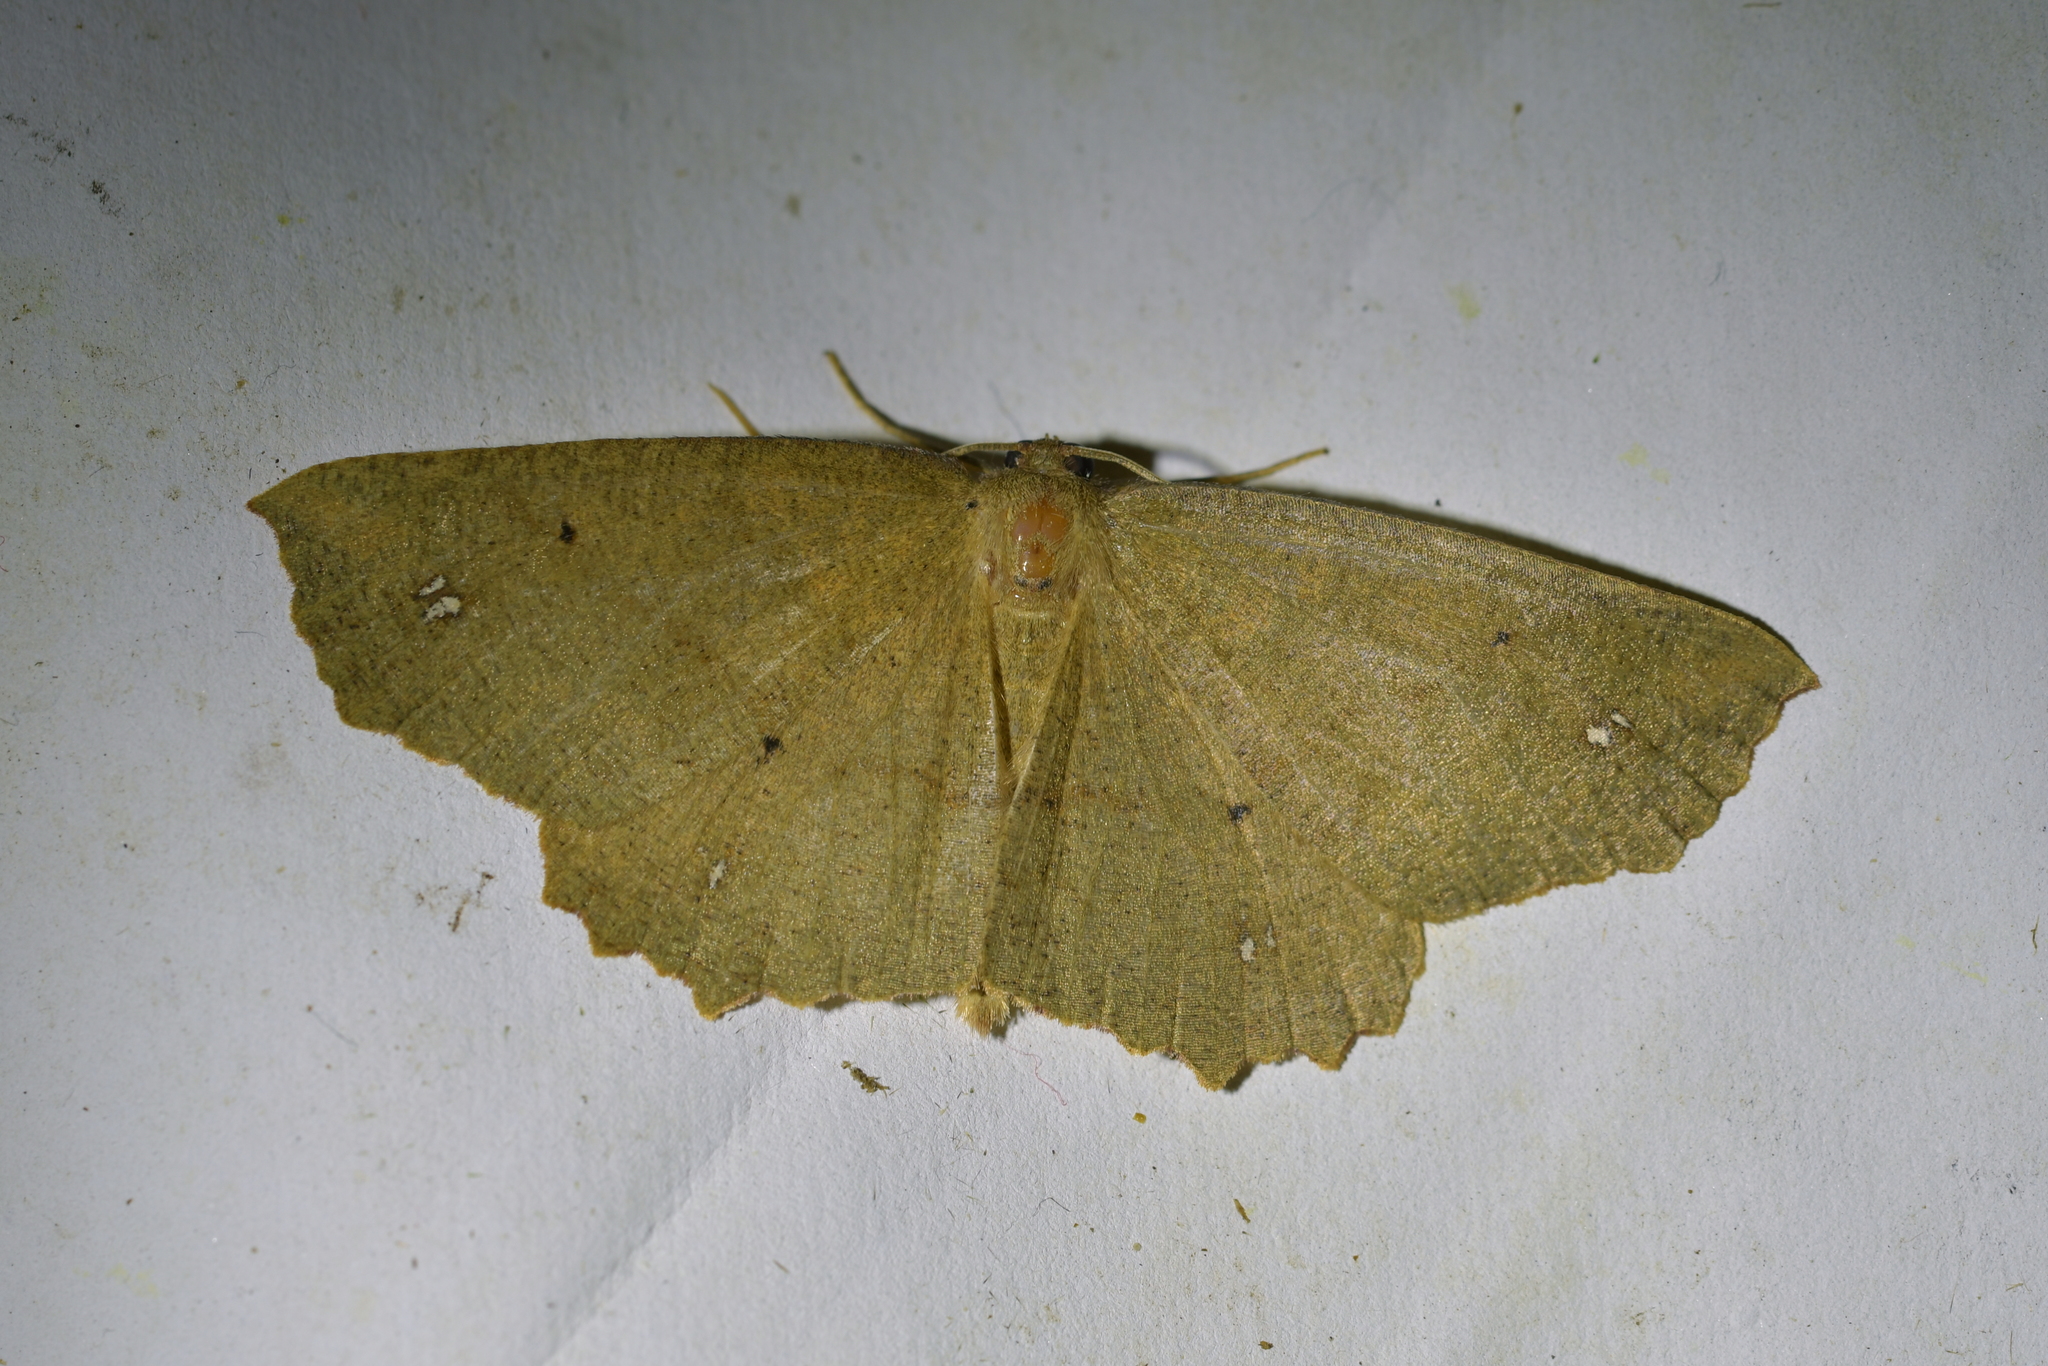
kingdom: Animalia
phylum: Arthropoda
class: Insecta
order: Lepidoptera
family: Geometridae
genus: Xyridacma
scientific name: Xyridacma ustaria
